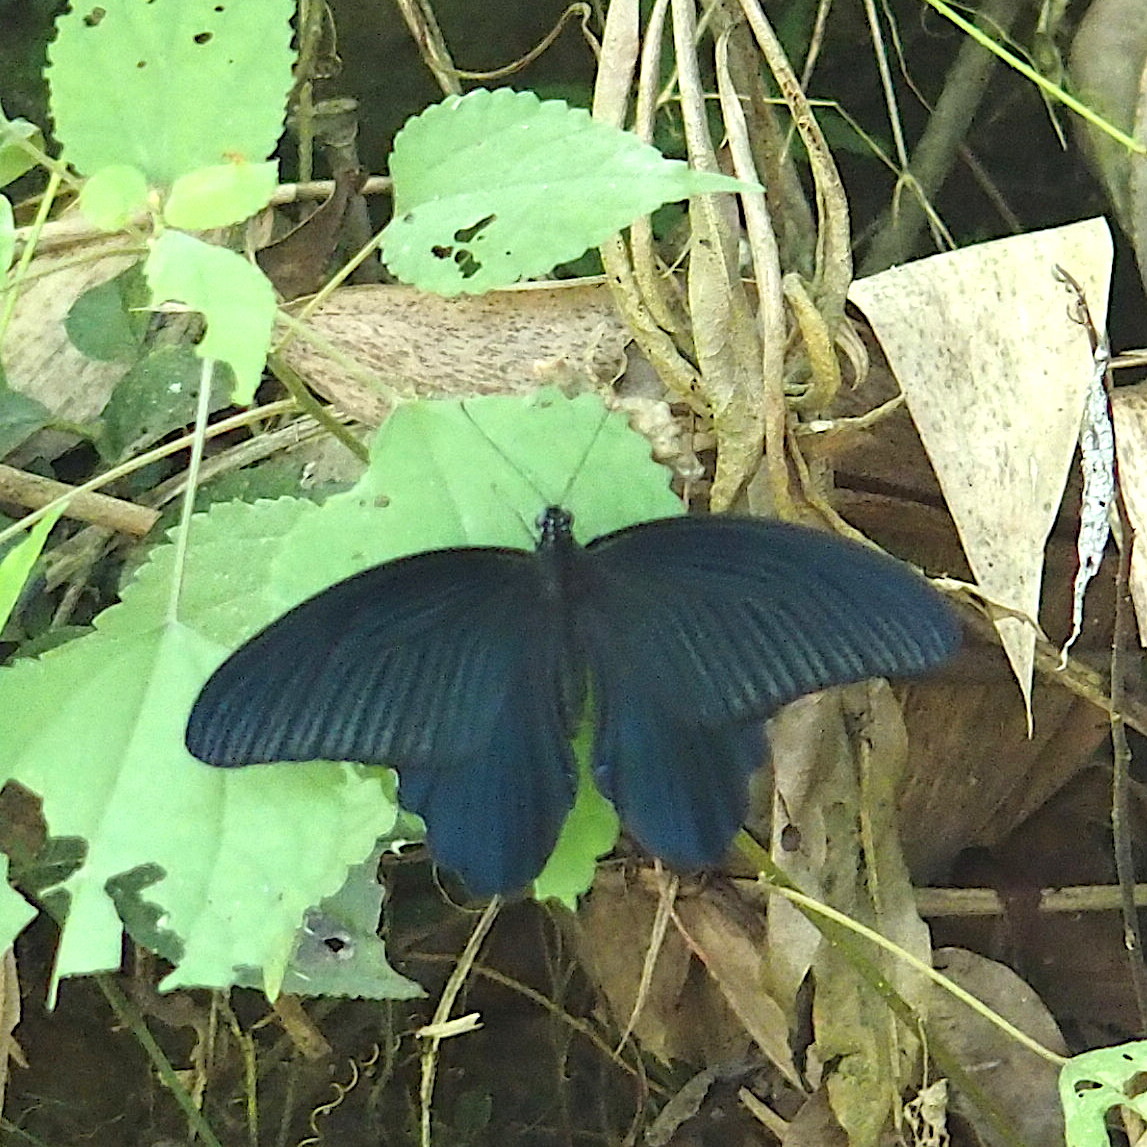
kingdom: Animalia
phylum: Arthropoda
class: Insecta
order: Lepidoptera
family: Papilionidae
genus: Papilio
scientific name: Papilio protenor
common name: Spangle
